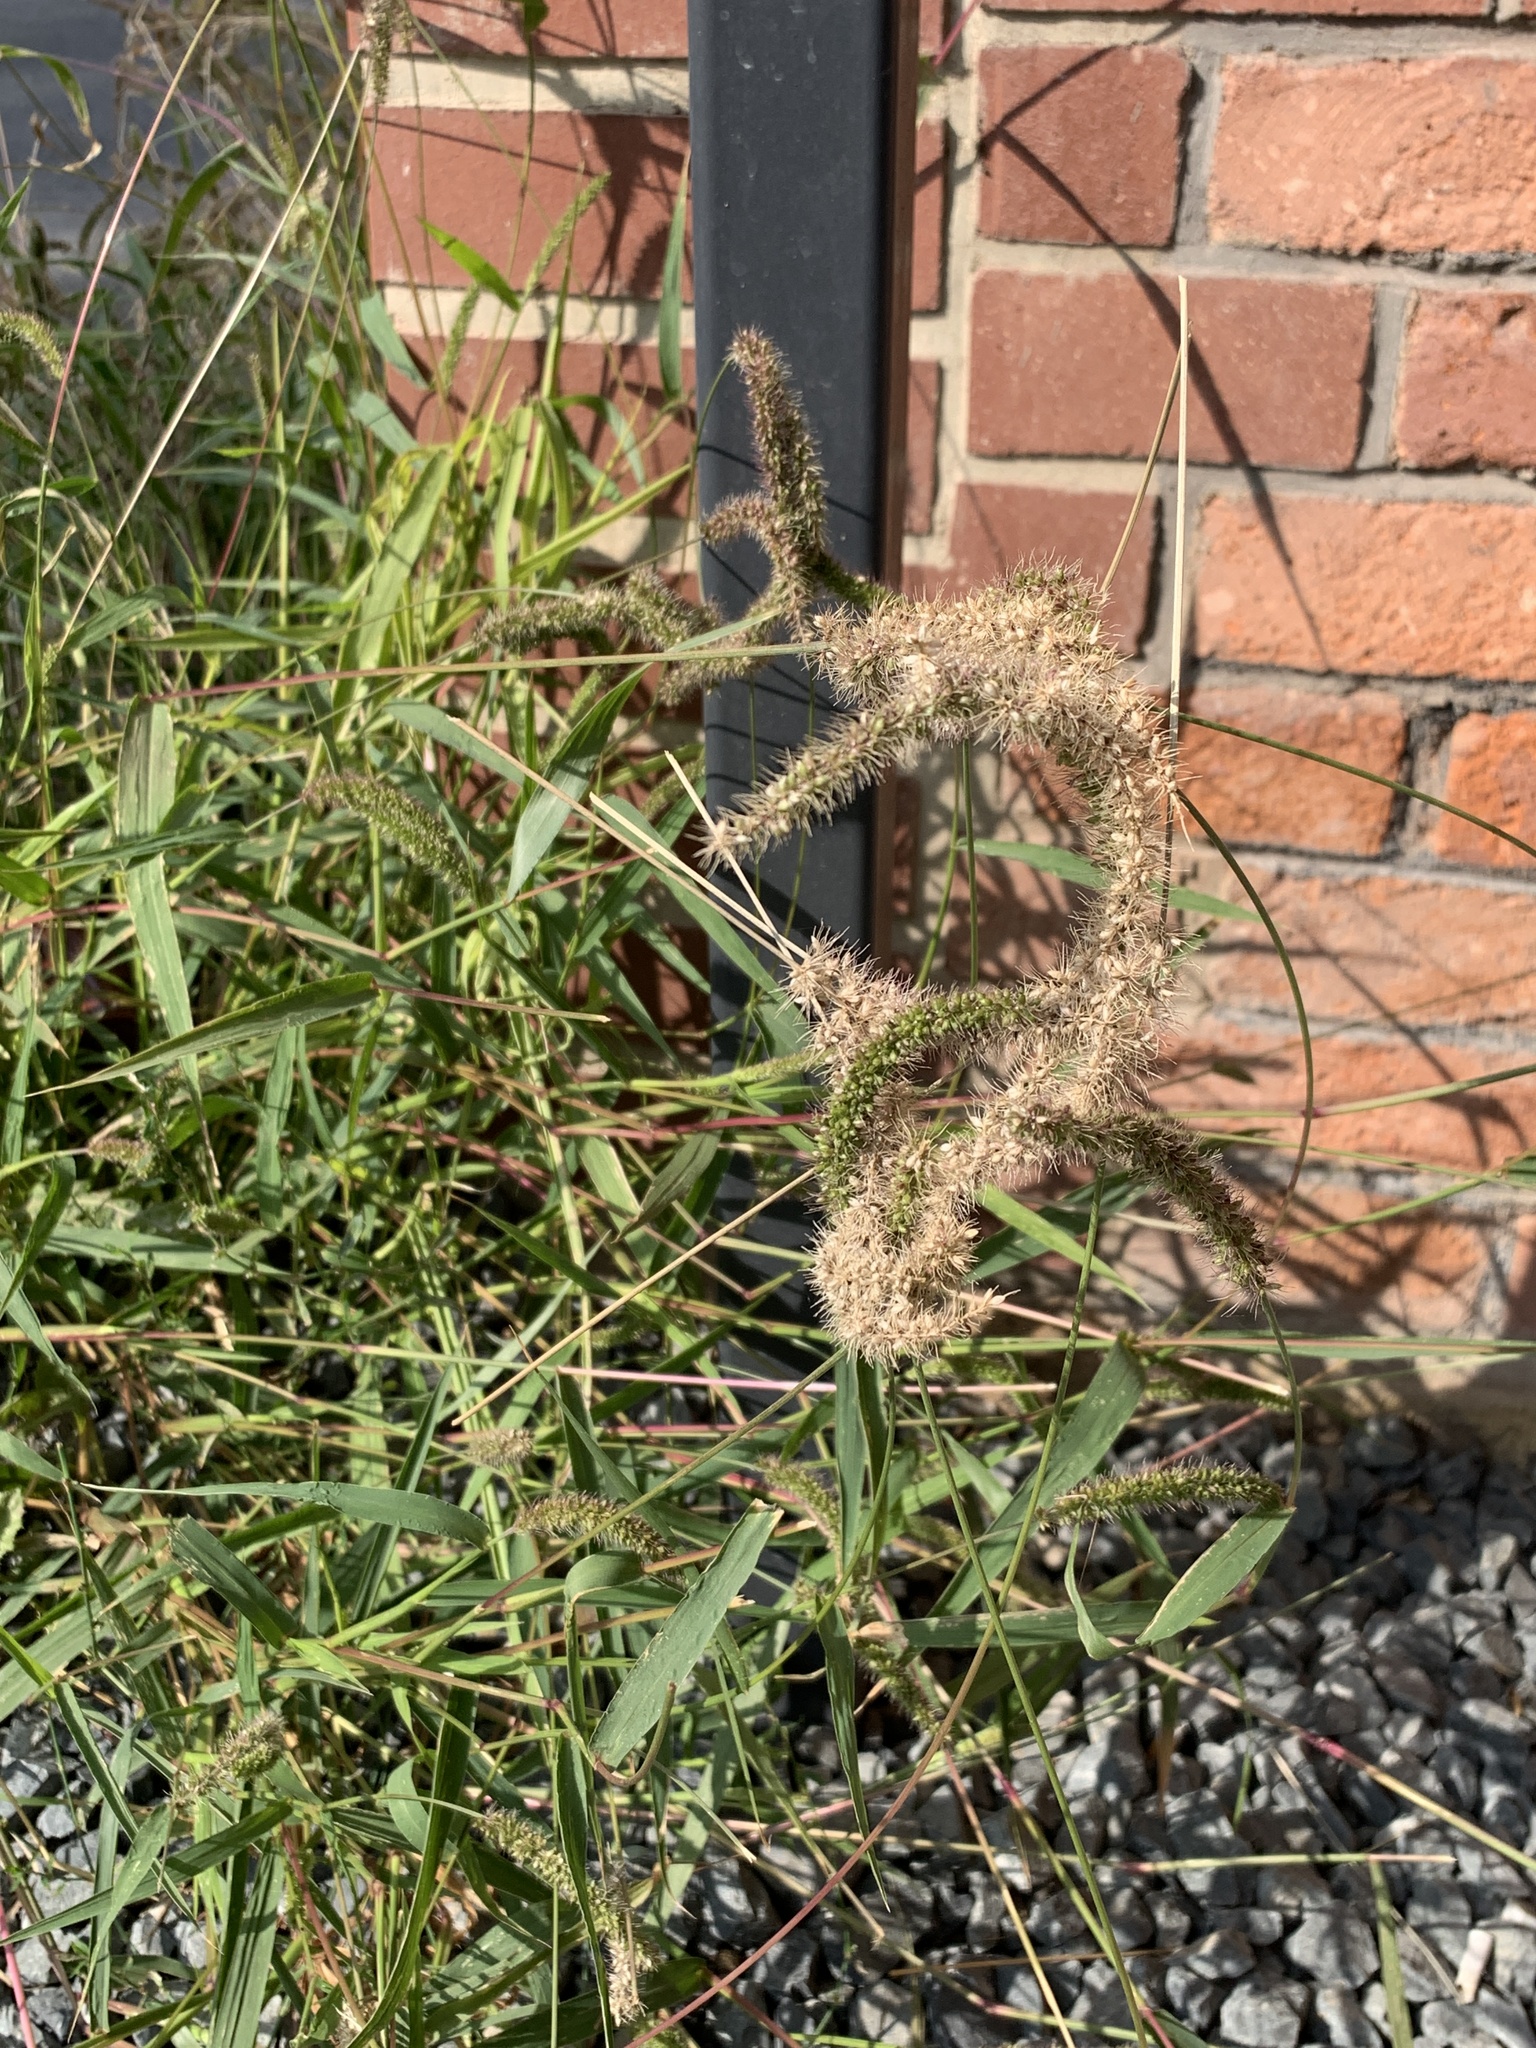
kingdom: Plantae
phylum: Tracheophyta
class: Liliopsida
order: Poales
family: Poaceae
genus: Setaria
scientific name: Setaria verticillata
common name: Hooked bristlegrass
